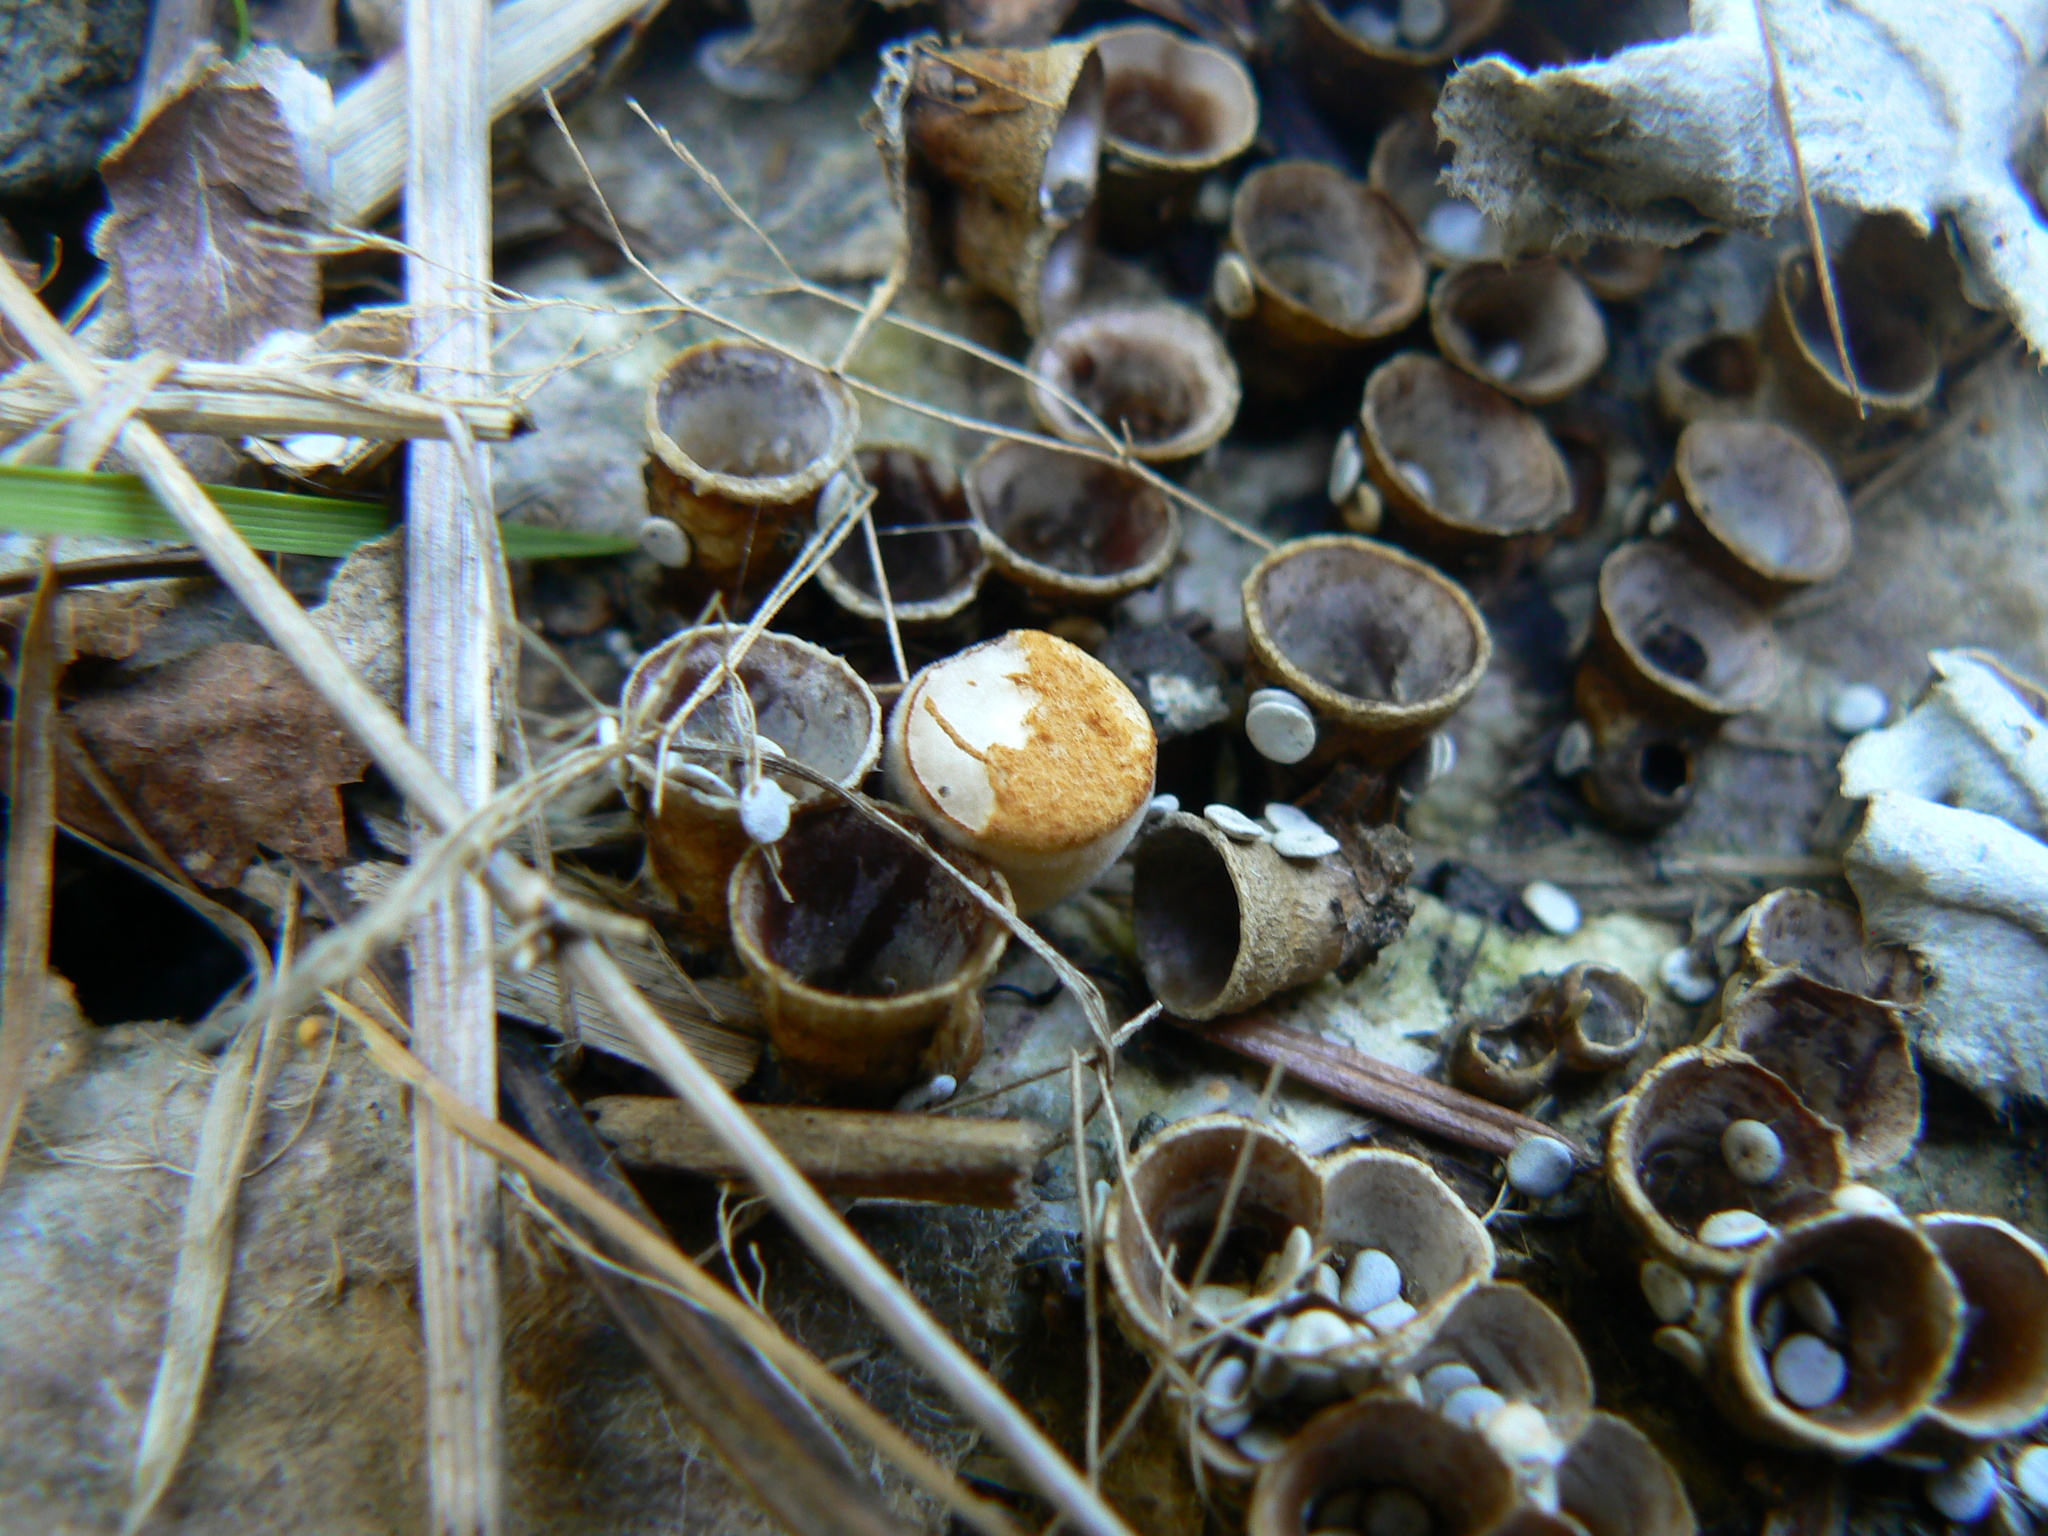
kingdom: Fungi
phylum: Basidiomycota
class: Agaricomycetes
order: Agaricales
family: Nidulariaceae
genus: Crucibulum
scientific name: Crucibulum laeve
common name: Common bird's nest
